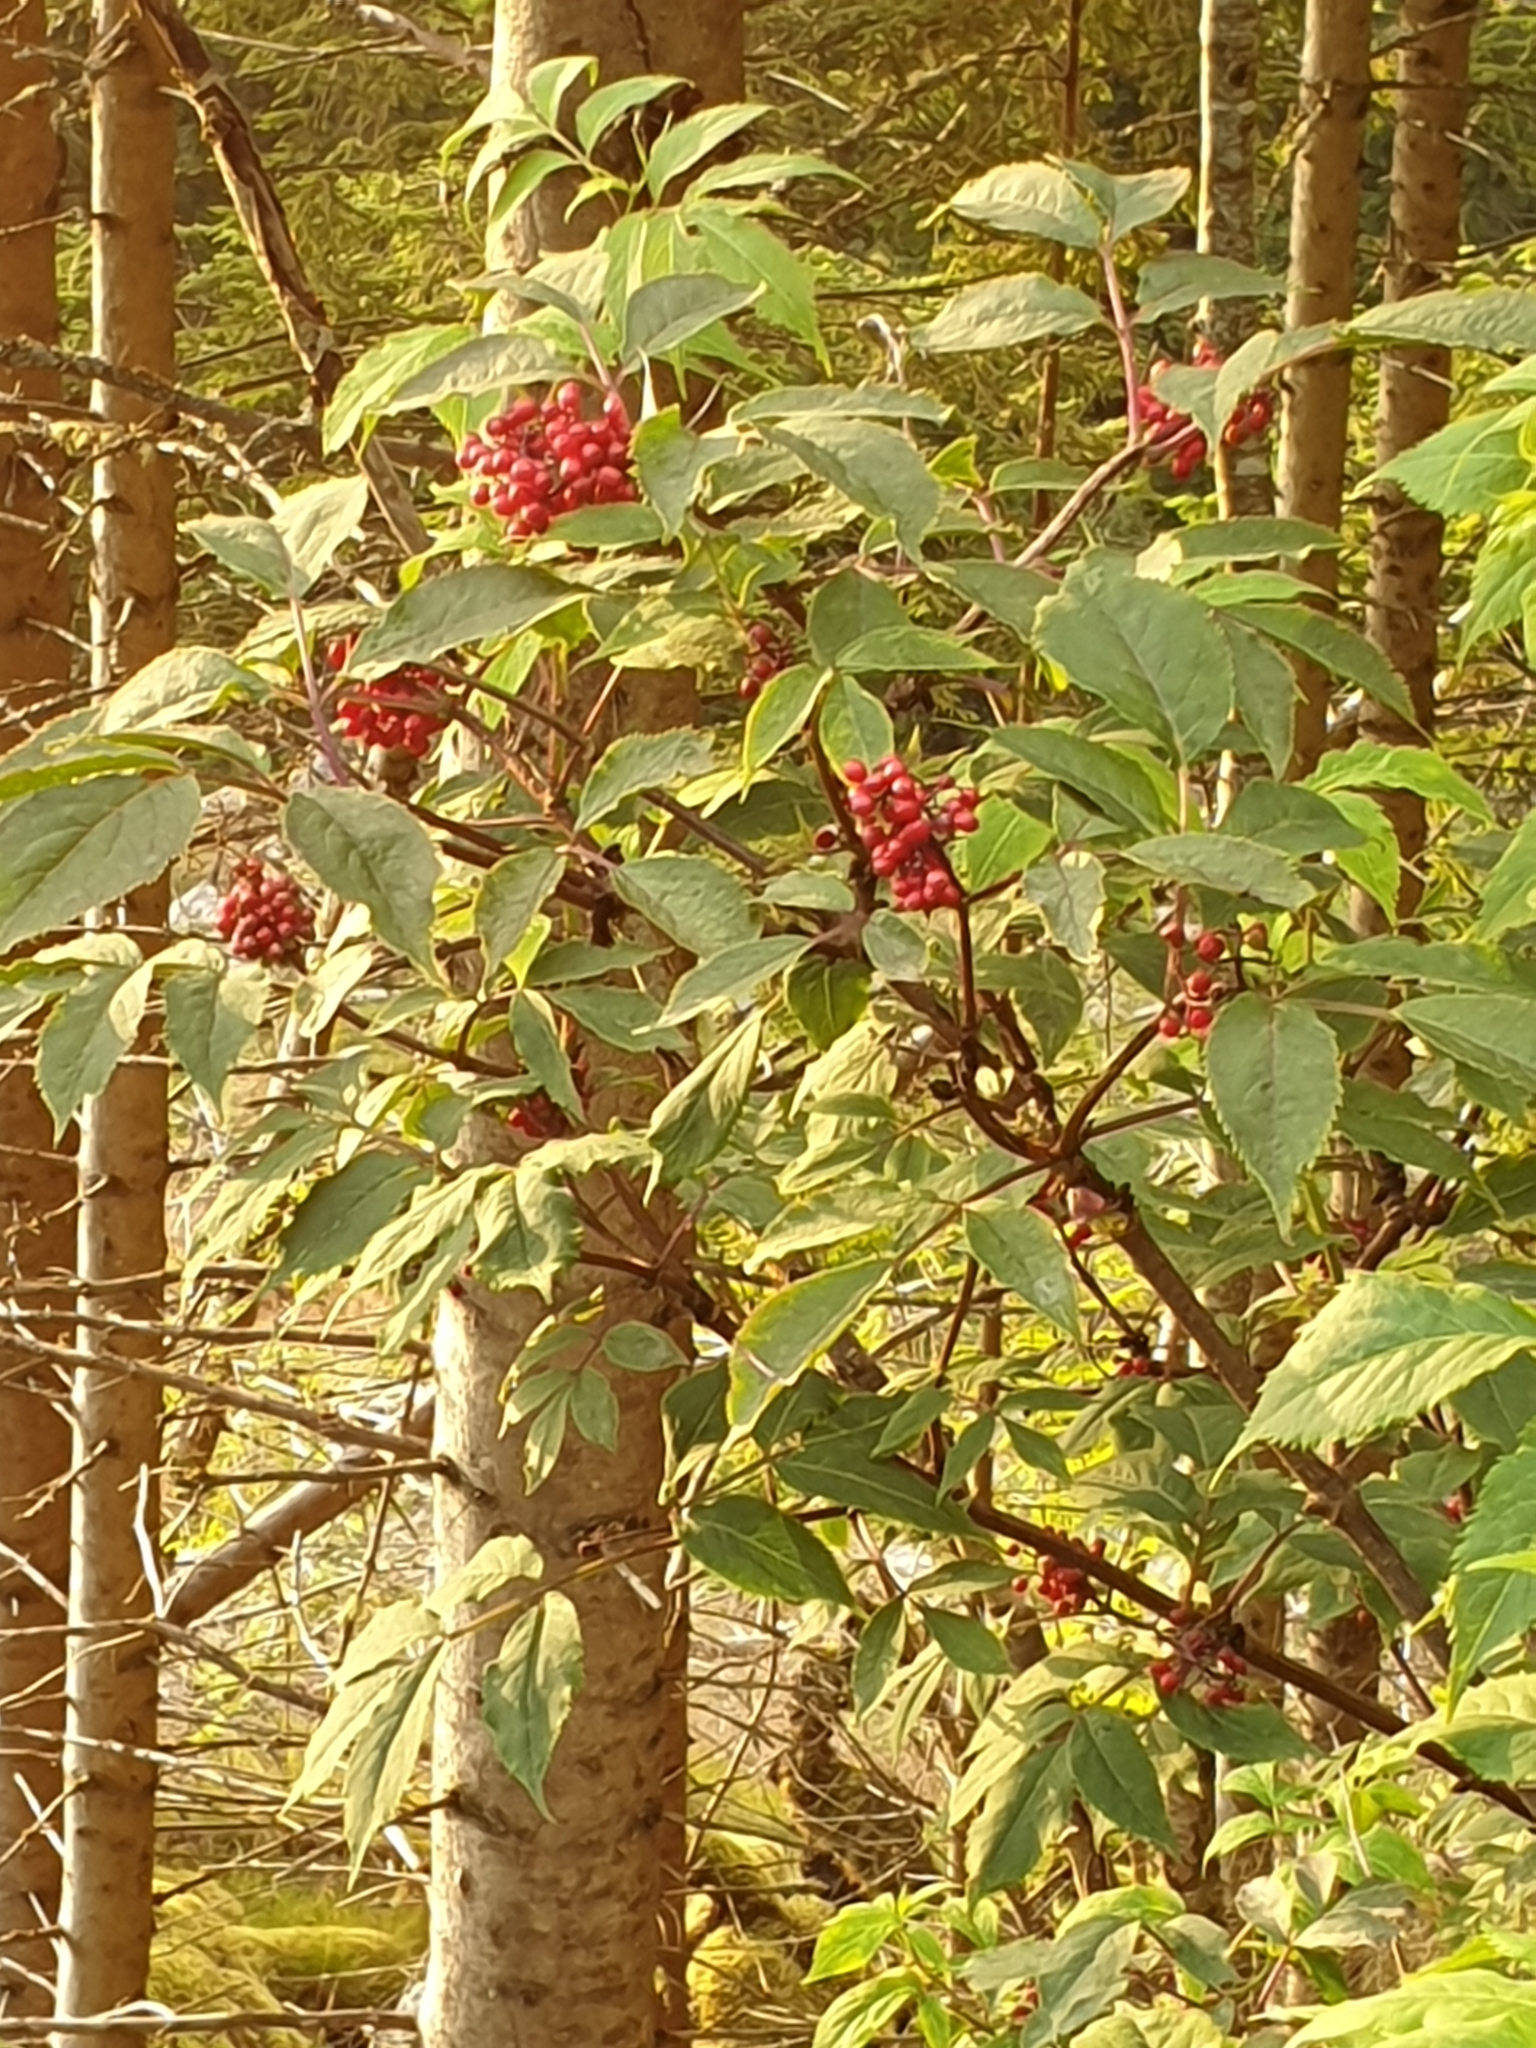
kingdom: Plantae
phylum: Tracheophyta
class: Magnoliopsida
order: Dipsacales
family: Viburnaceae
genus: Sambucus
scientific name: Sambucus racemosa
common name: Red-berried elder
